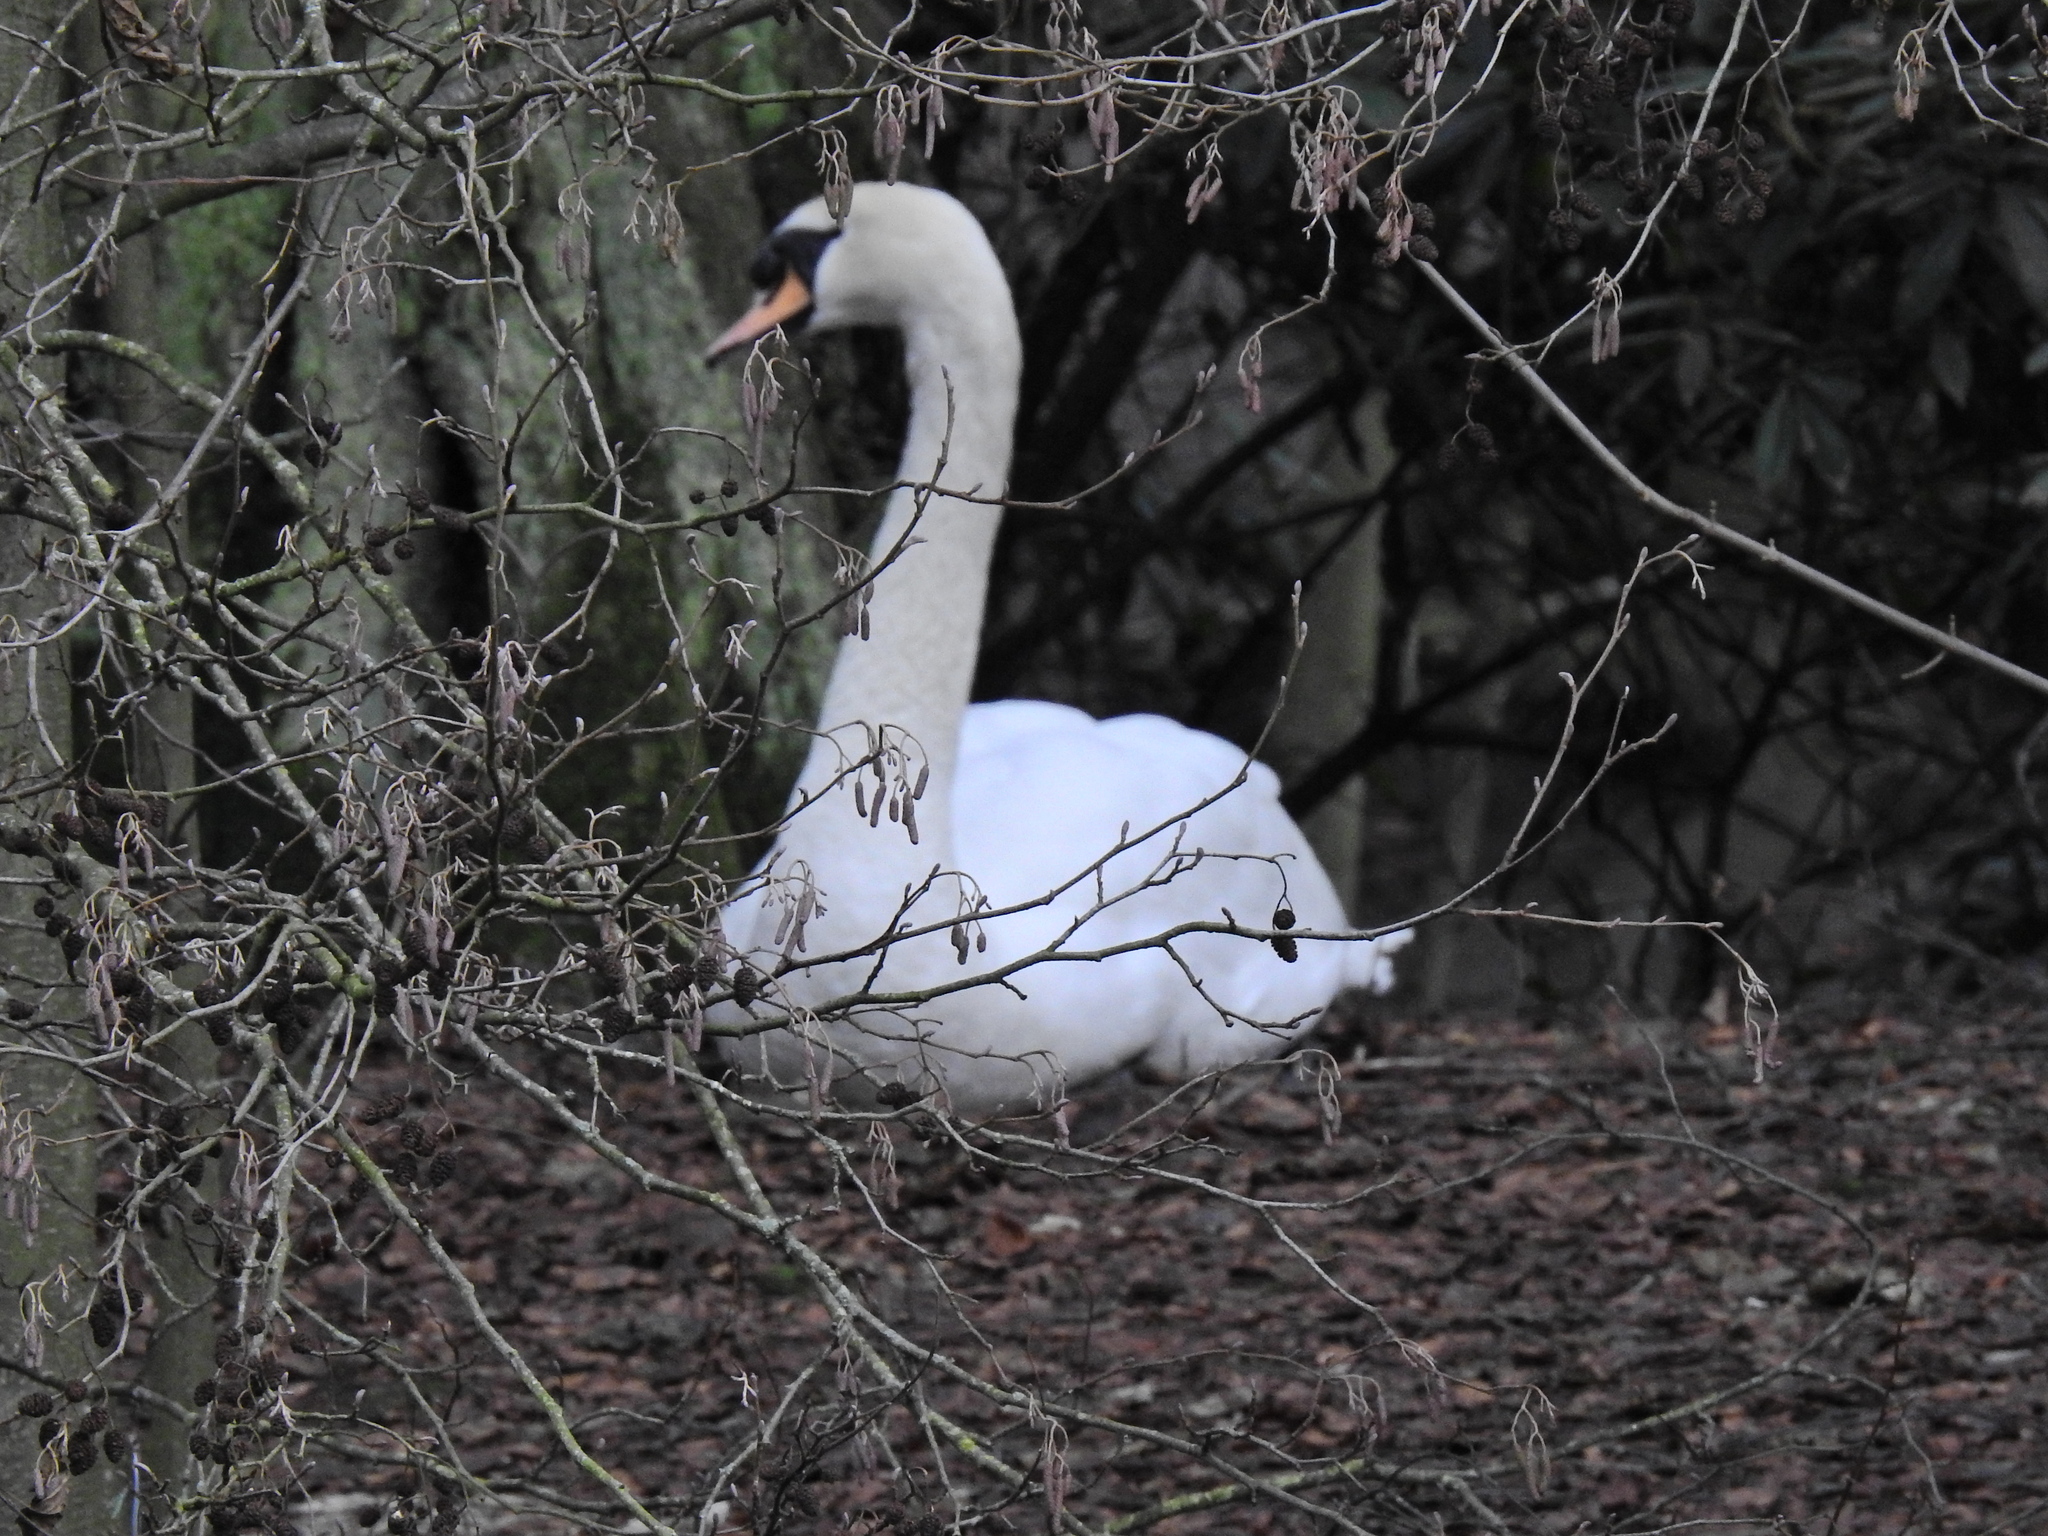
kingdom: Animalia
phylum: Chordata
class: Aves
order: Anseriformes
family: Anatidae
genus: Cygnus
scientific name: Cygnus olor
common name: Mute swan
